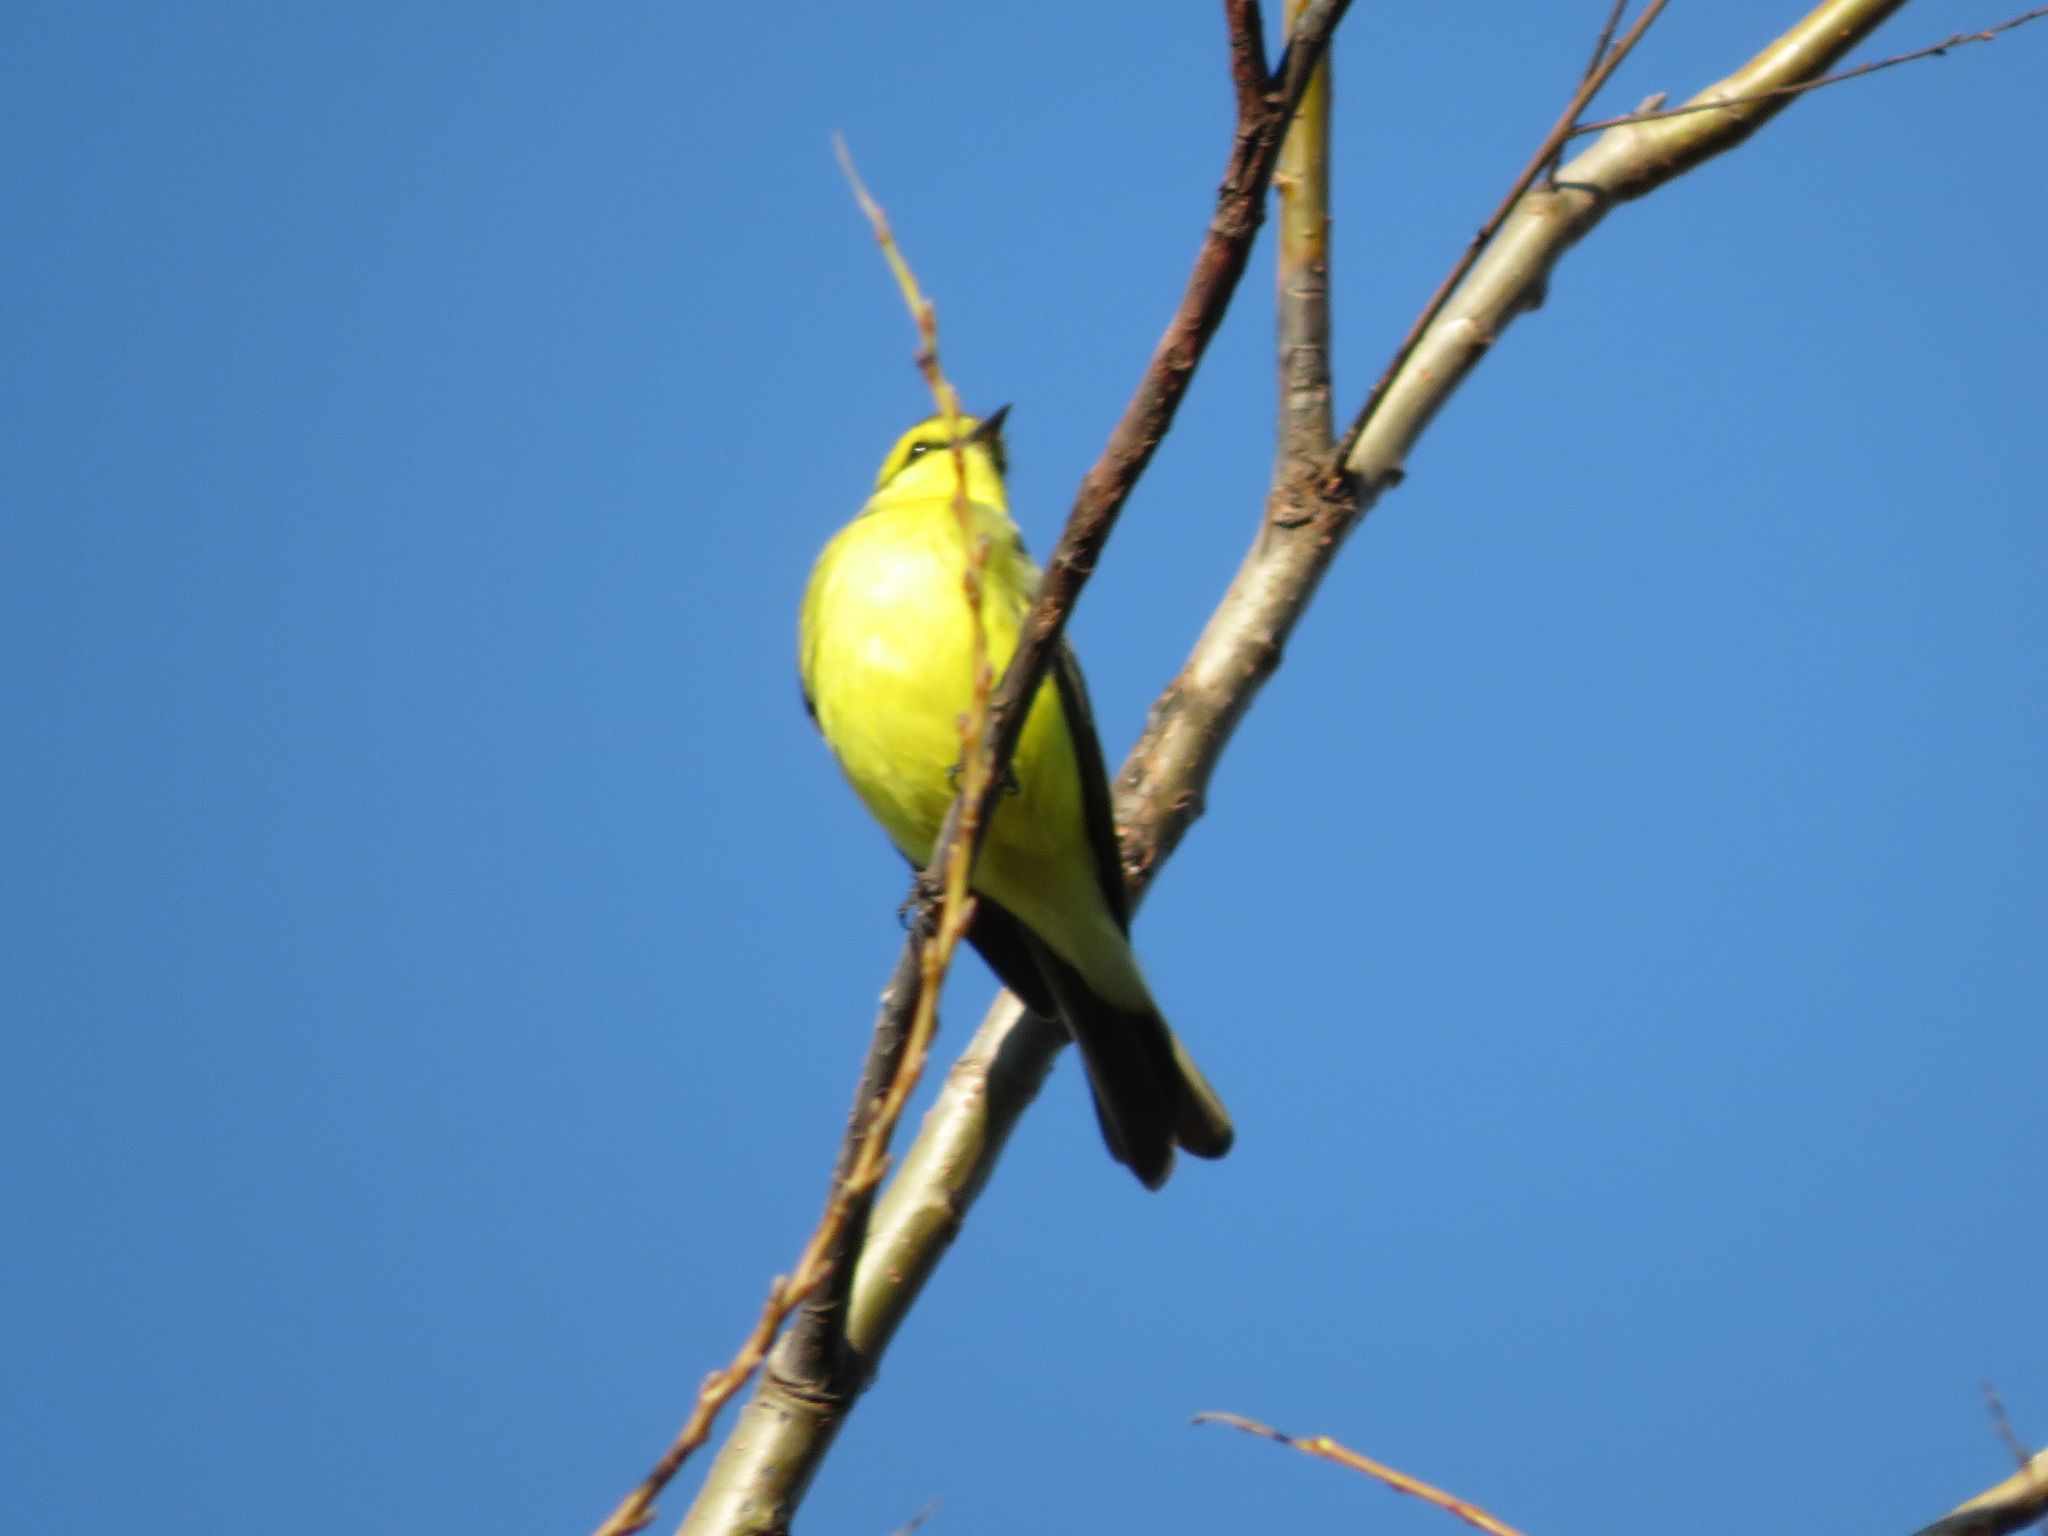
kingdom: Animalia
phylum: Chordata
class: Aves
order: Passeriformes
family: Tyrannidae
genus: Satrapa
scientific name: Satrapa icterophrys
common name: Yellow-browed tyrant
